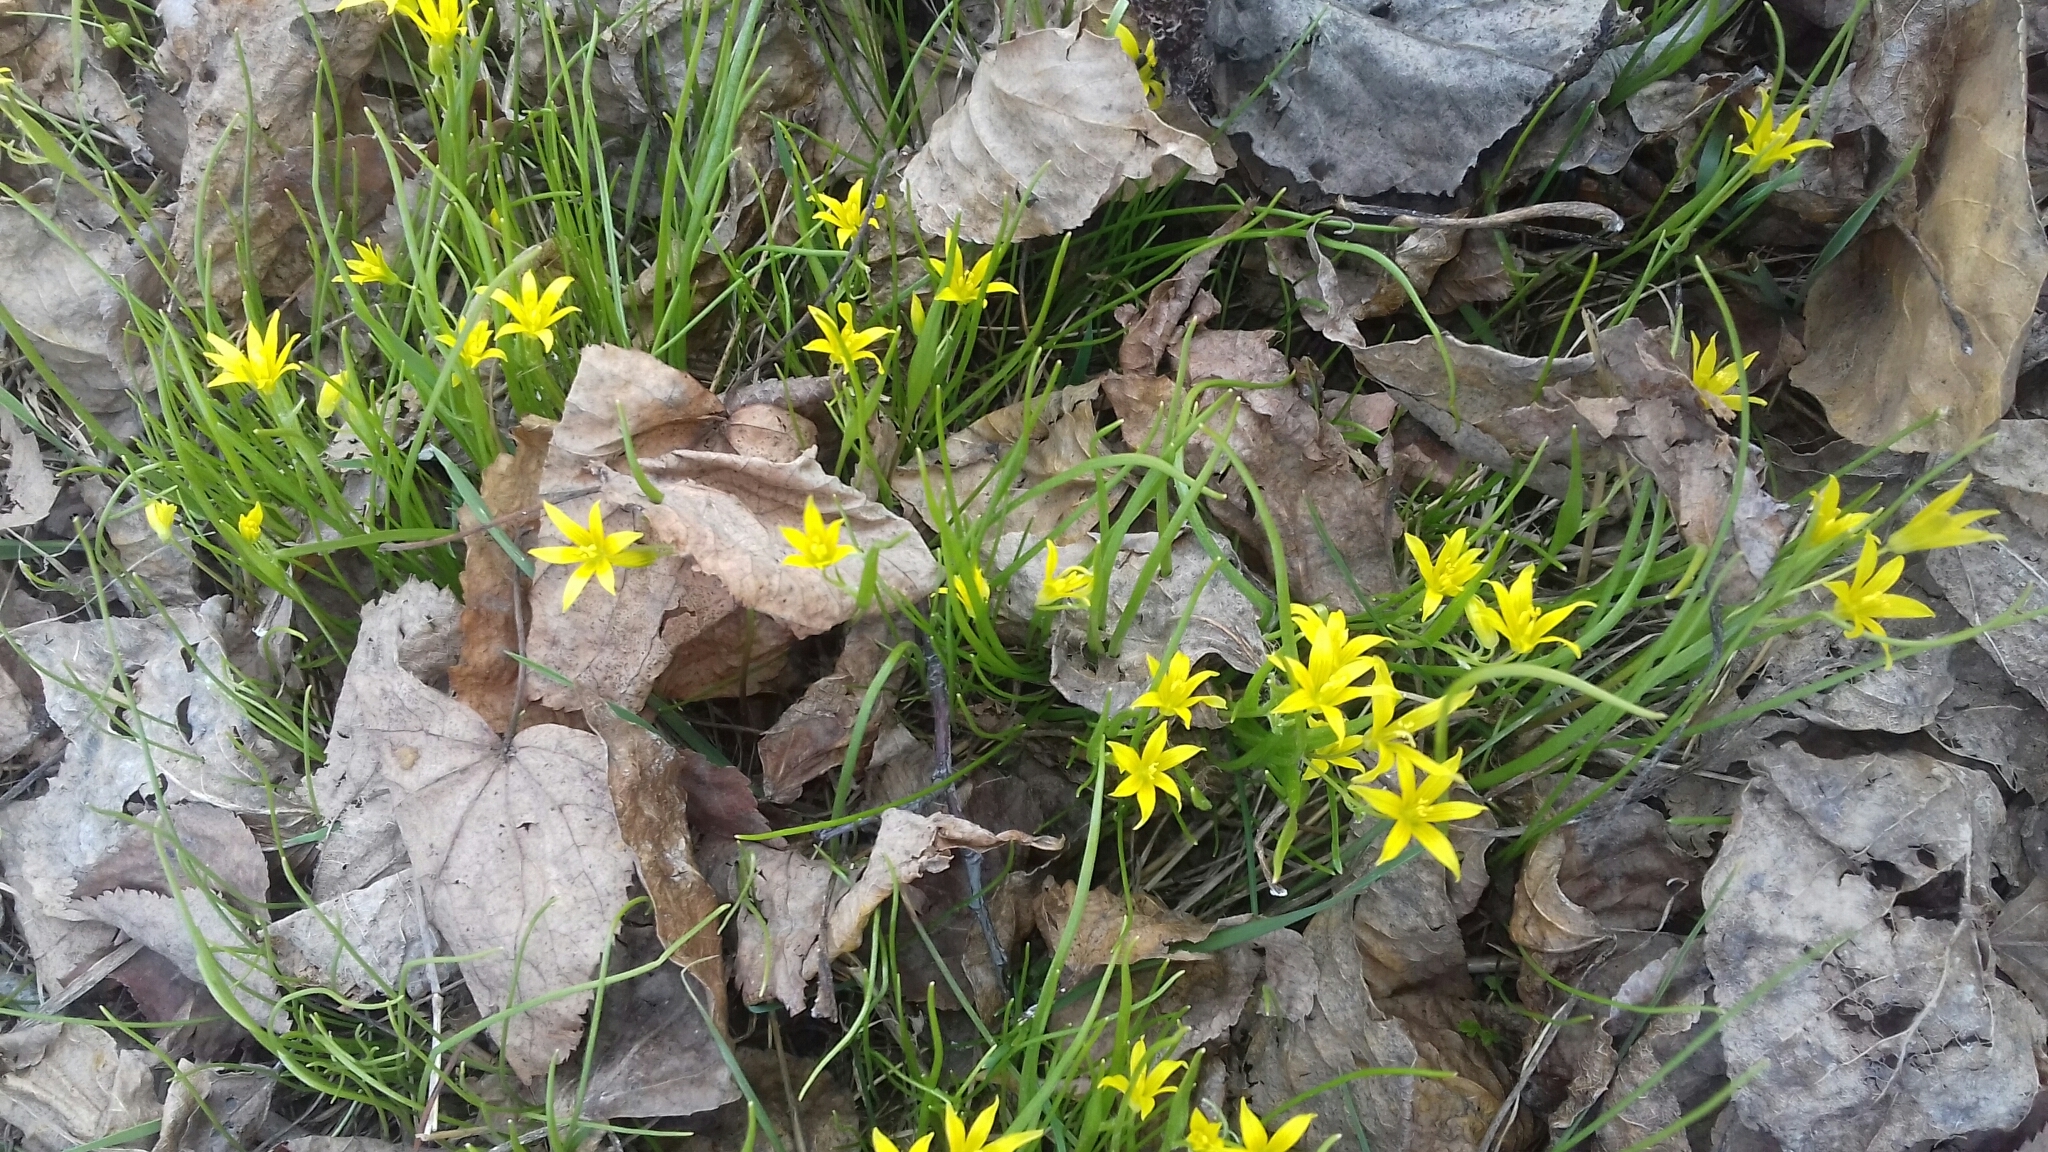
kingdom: Plantae
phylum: Tracheophyta
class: Liliopsida
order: Liliales
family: Liliaceae
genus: Gagea
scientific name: Gagea minima
